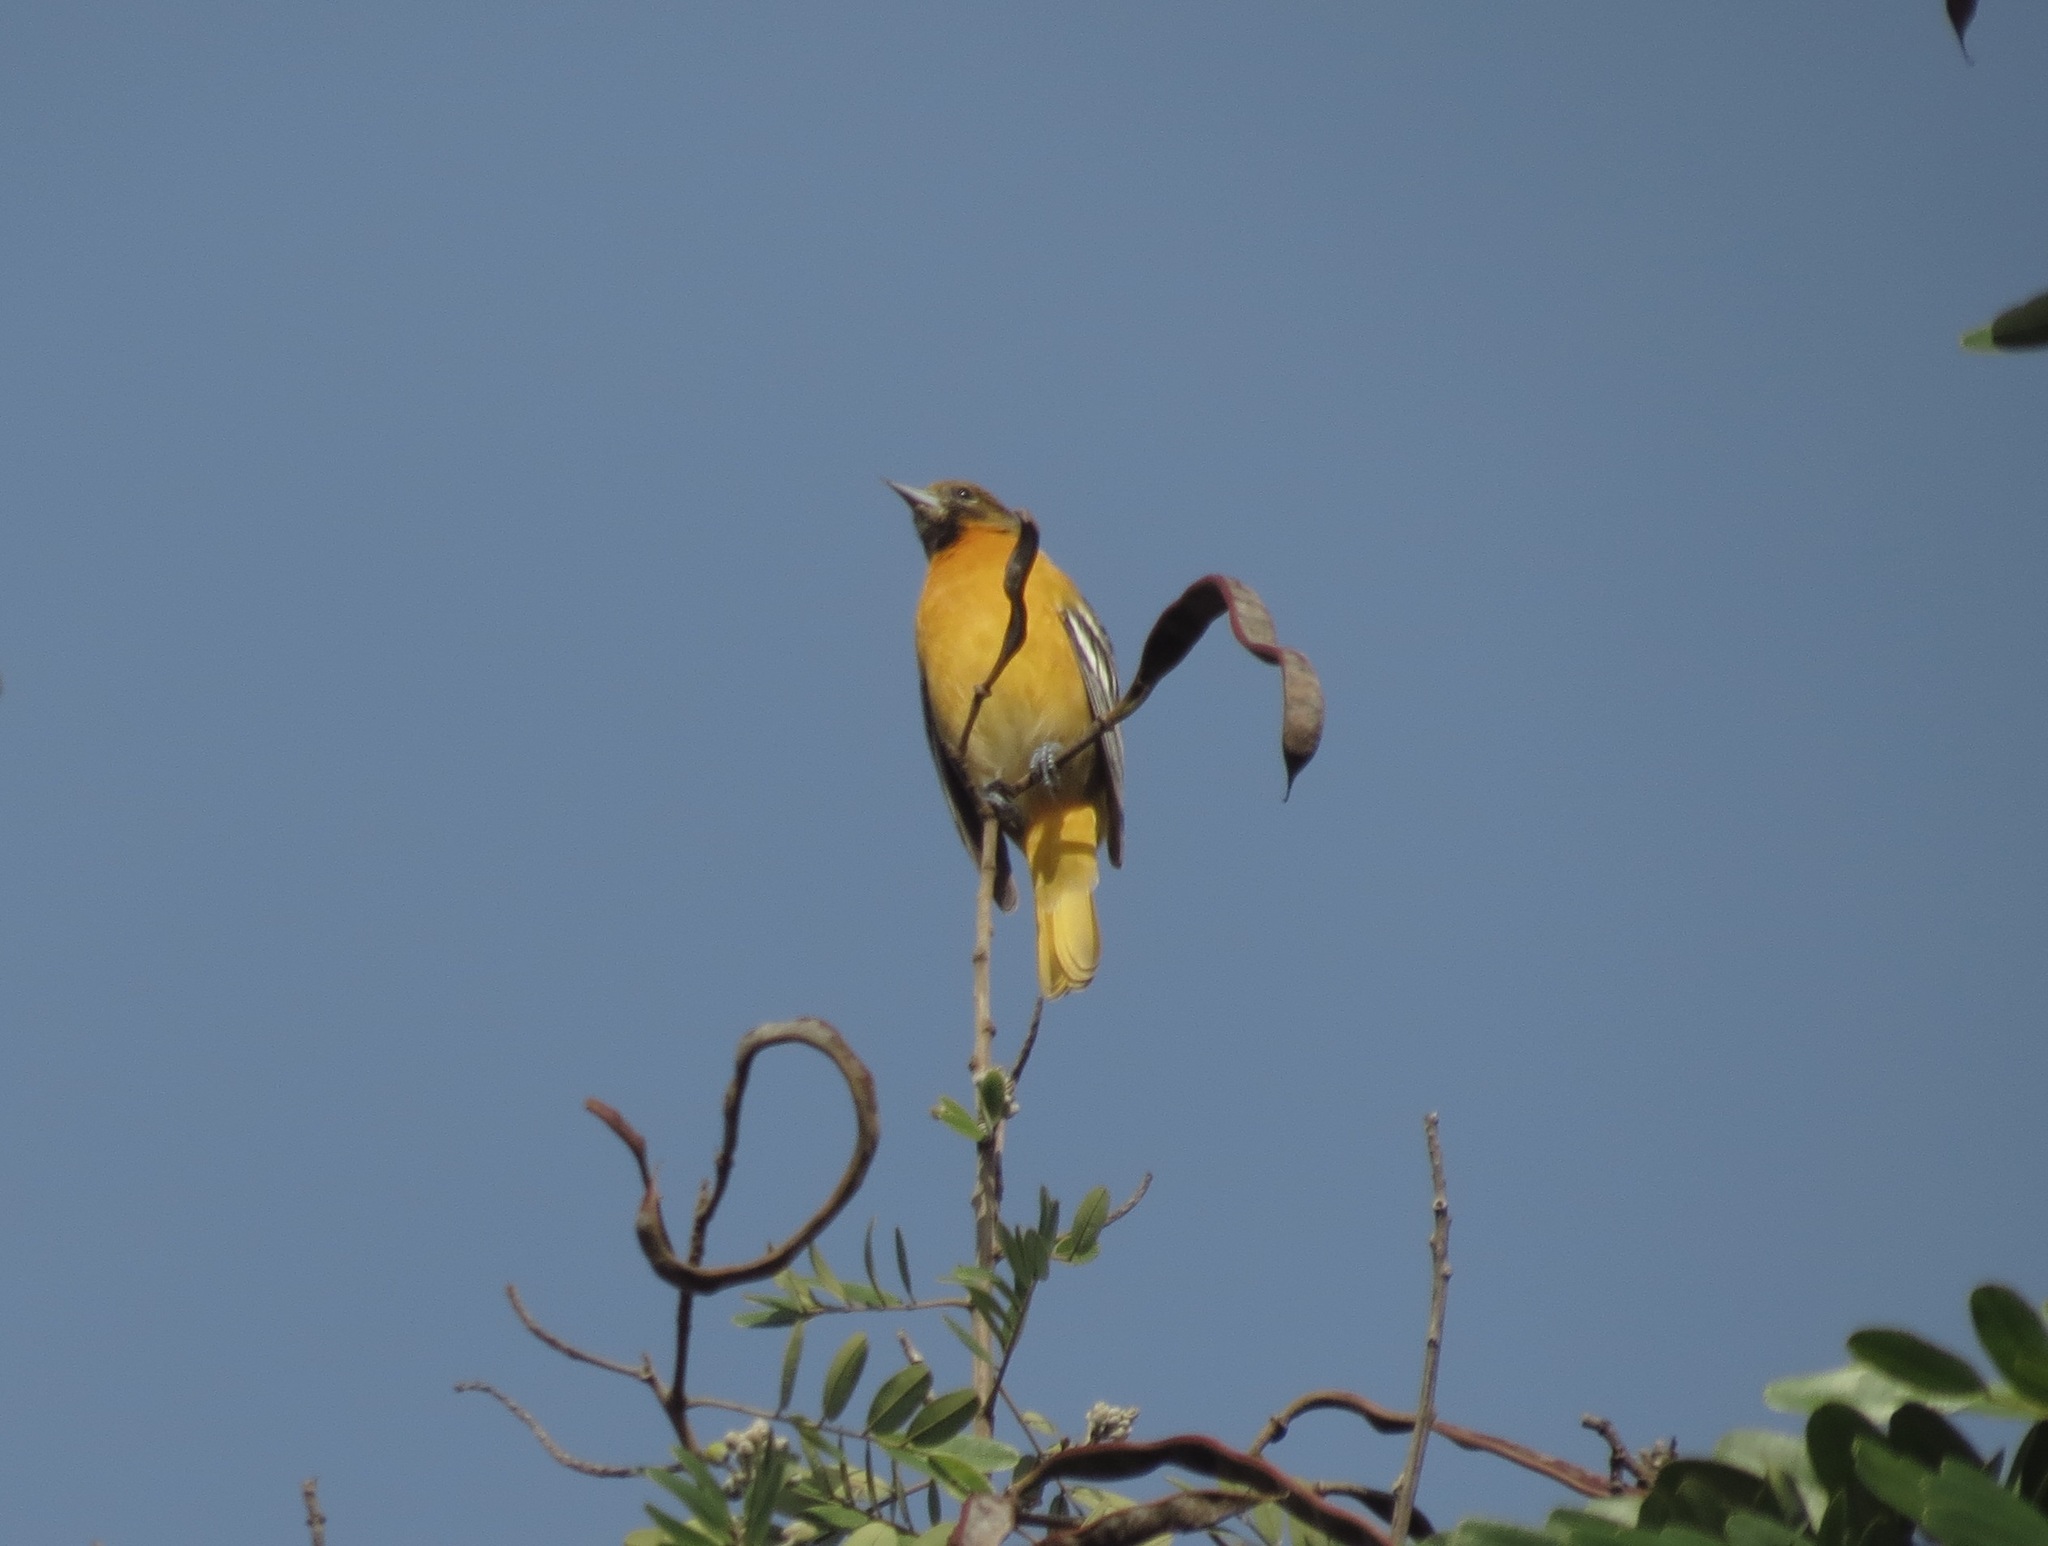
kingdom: Animalia
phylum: Chordata
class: Aves
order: Passeriformes
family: Icteridae
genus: Icterus
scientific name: Icterus galbula
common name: Baltimore oriole
